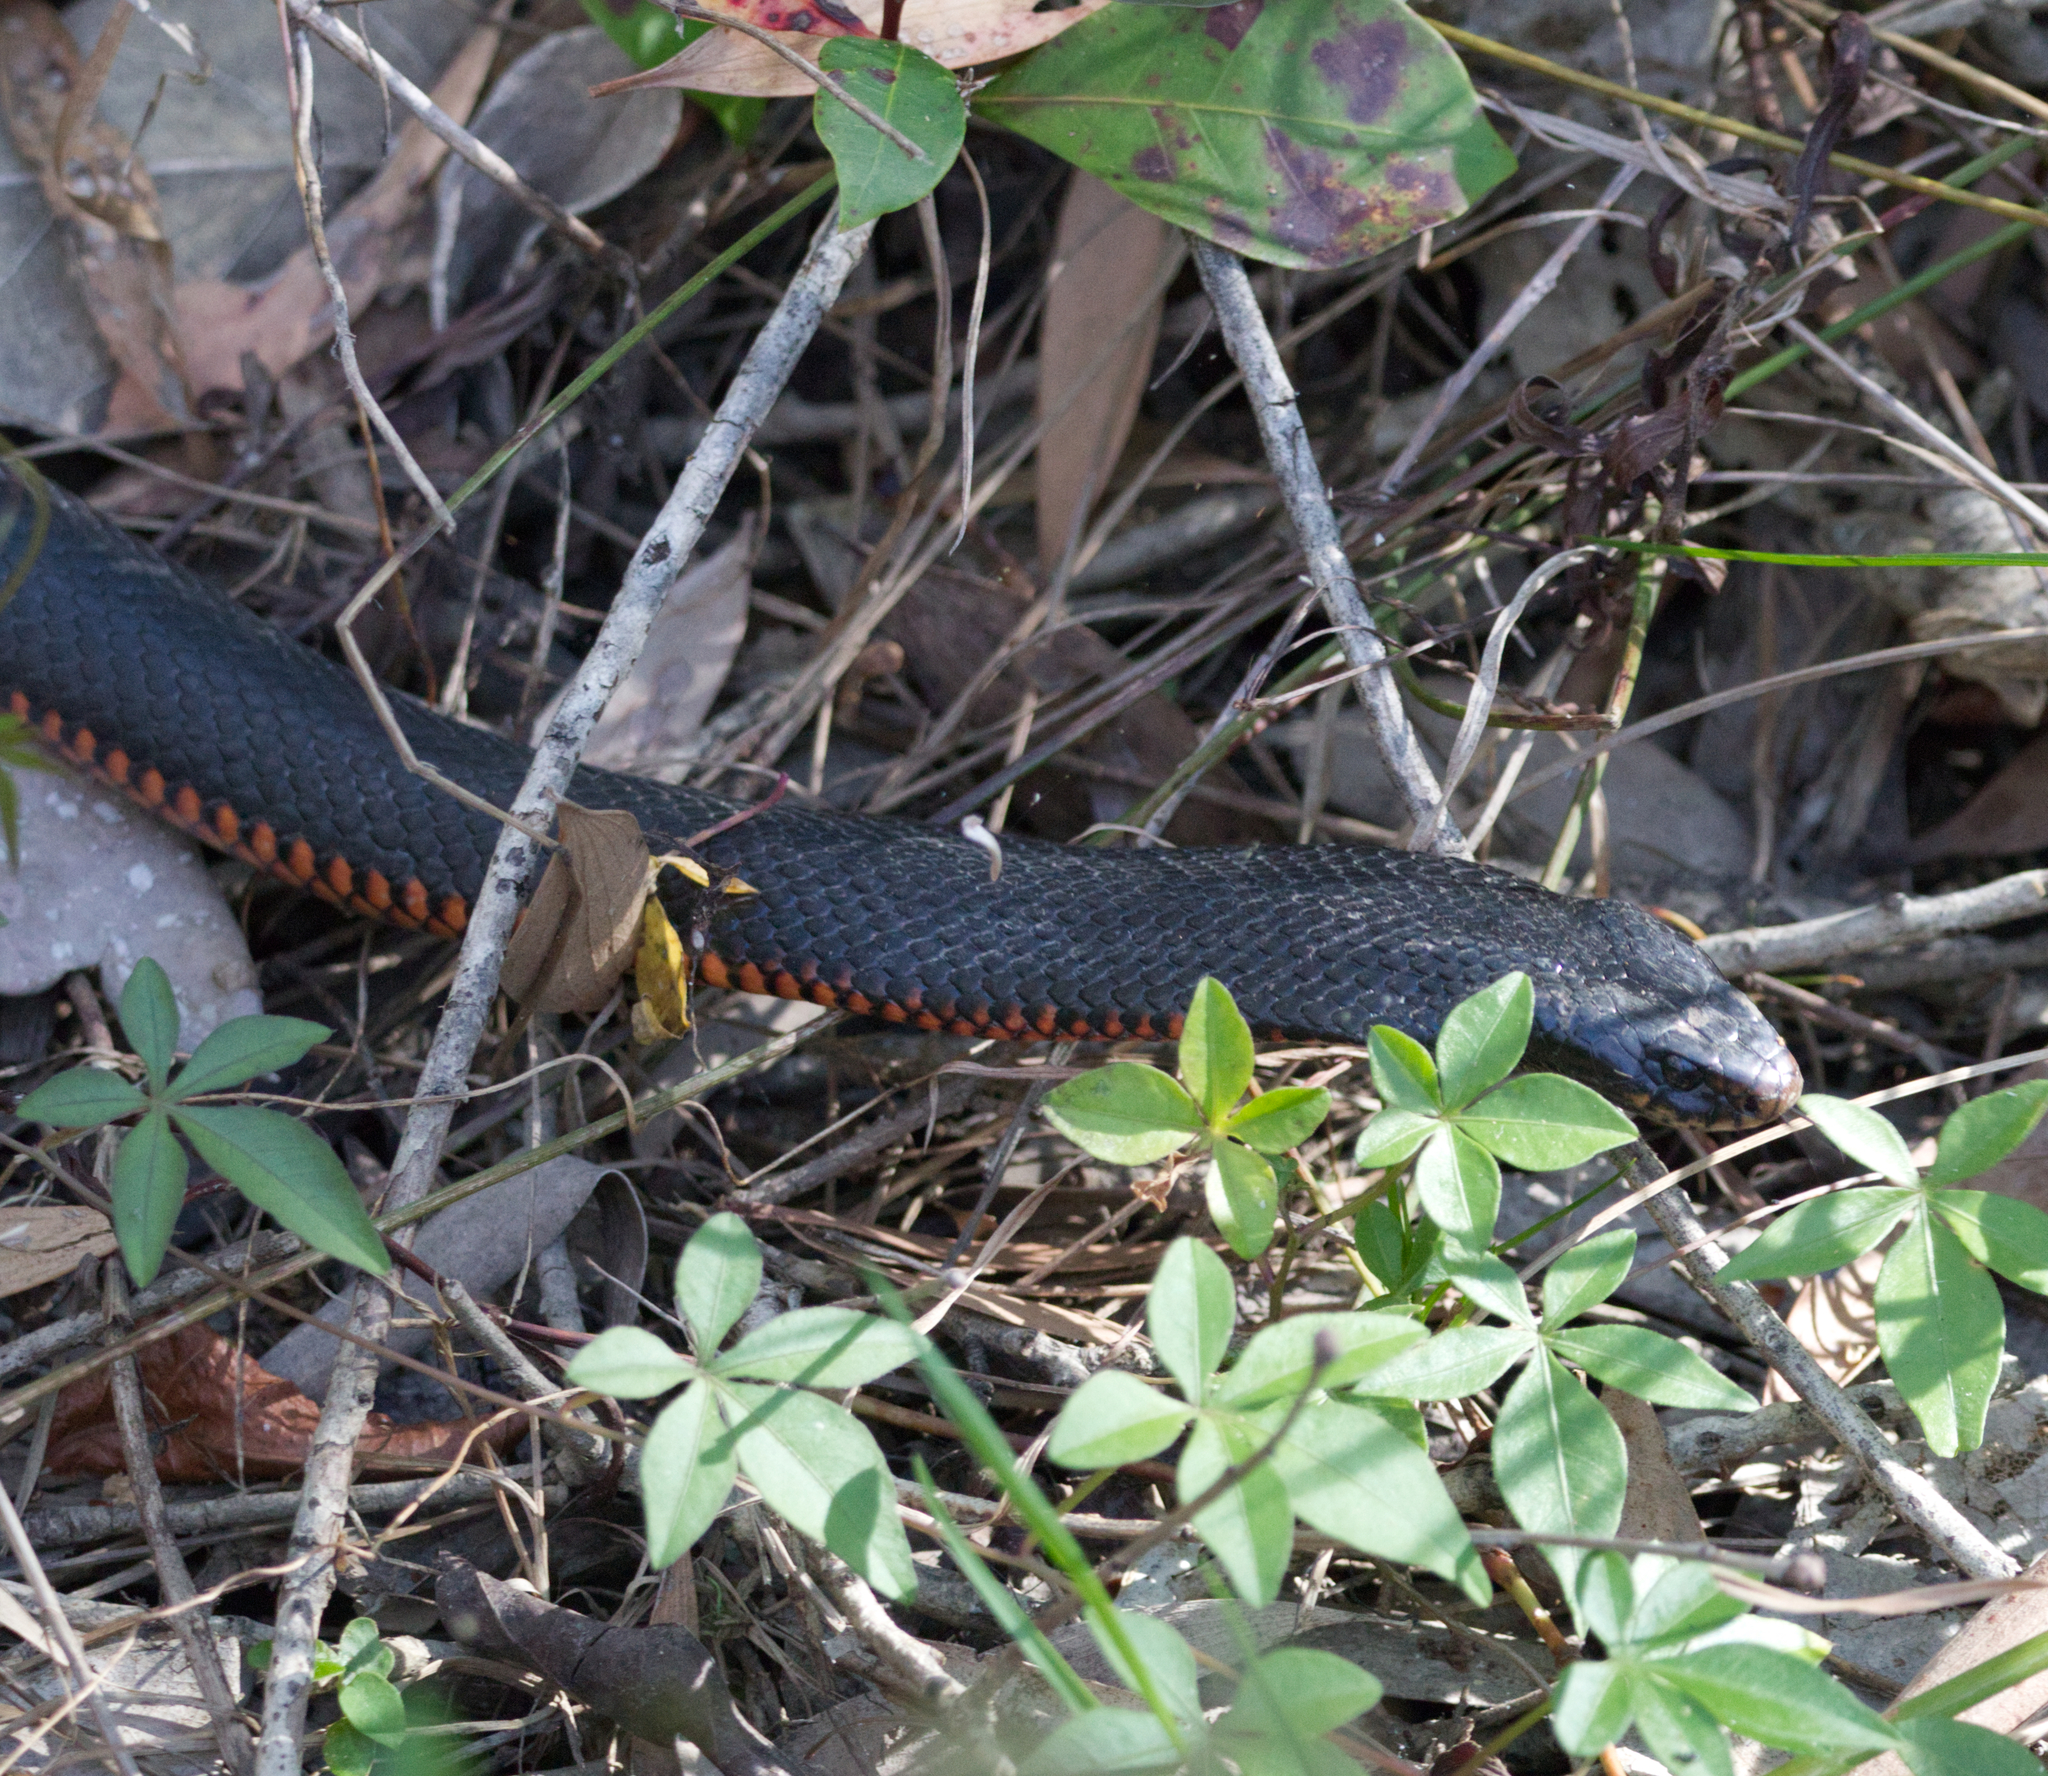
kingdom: Animalia
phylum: Chordata
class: Squamata
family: Elapidae
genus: Pseudechis
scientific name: Pseudechis porphyriacus
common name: Australian black snake
